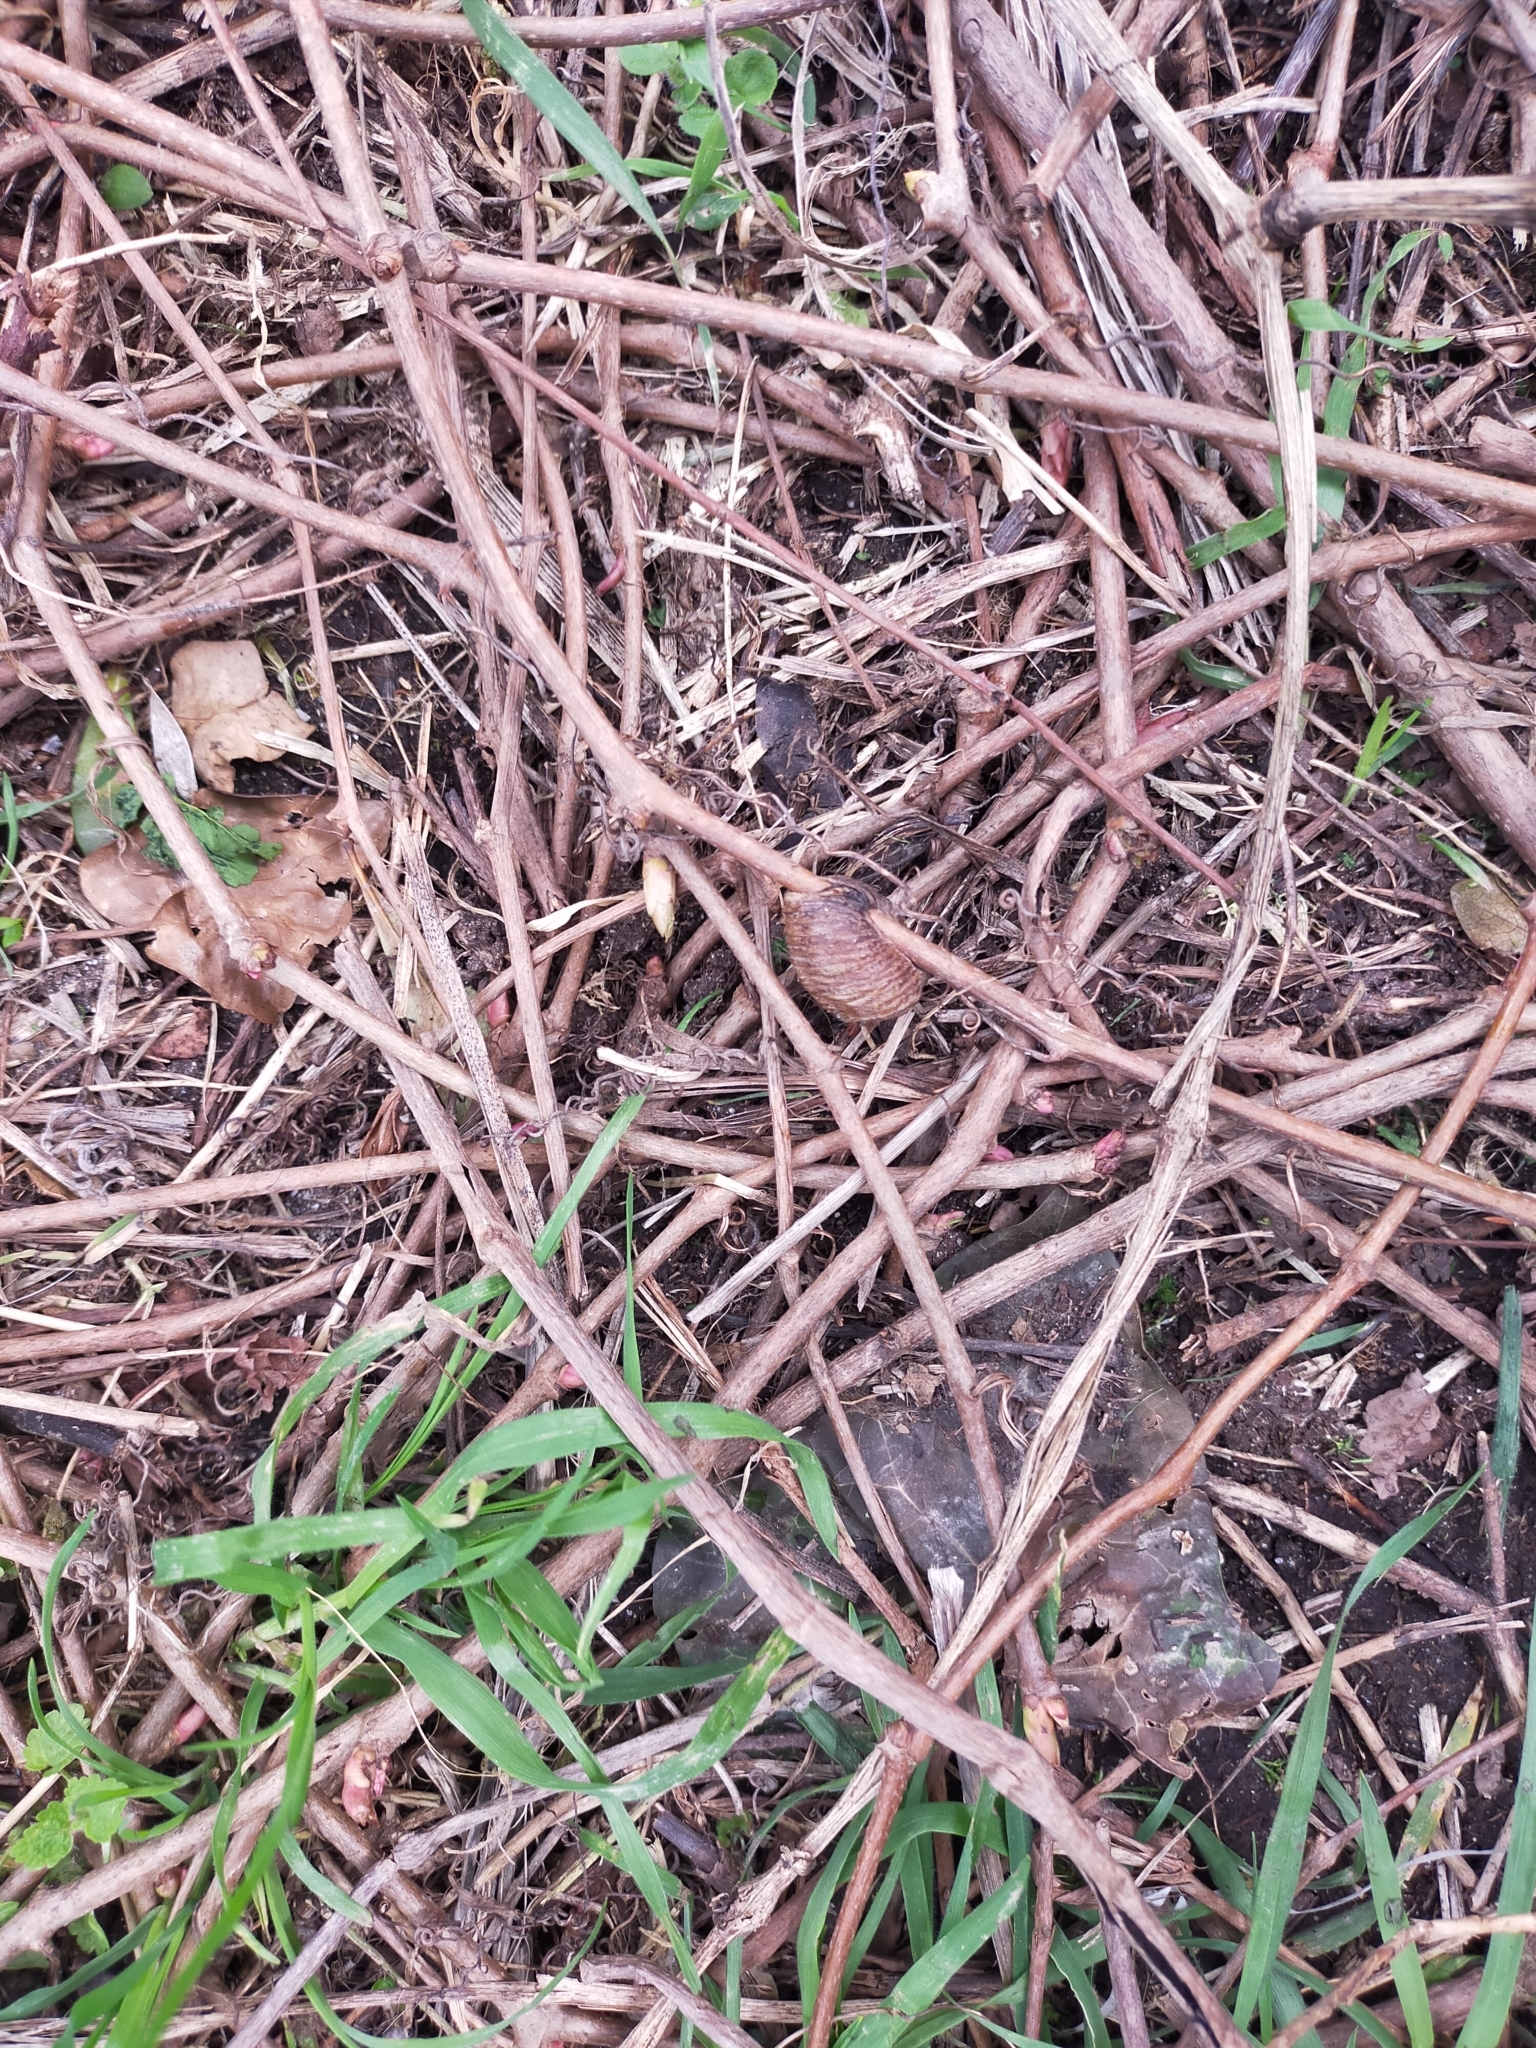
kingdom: Animalia
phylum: Arthropoda
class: Insecta
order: Mantodea
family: Mantidae
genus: Hierodula
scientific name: Hierodula transcaucasica
